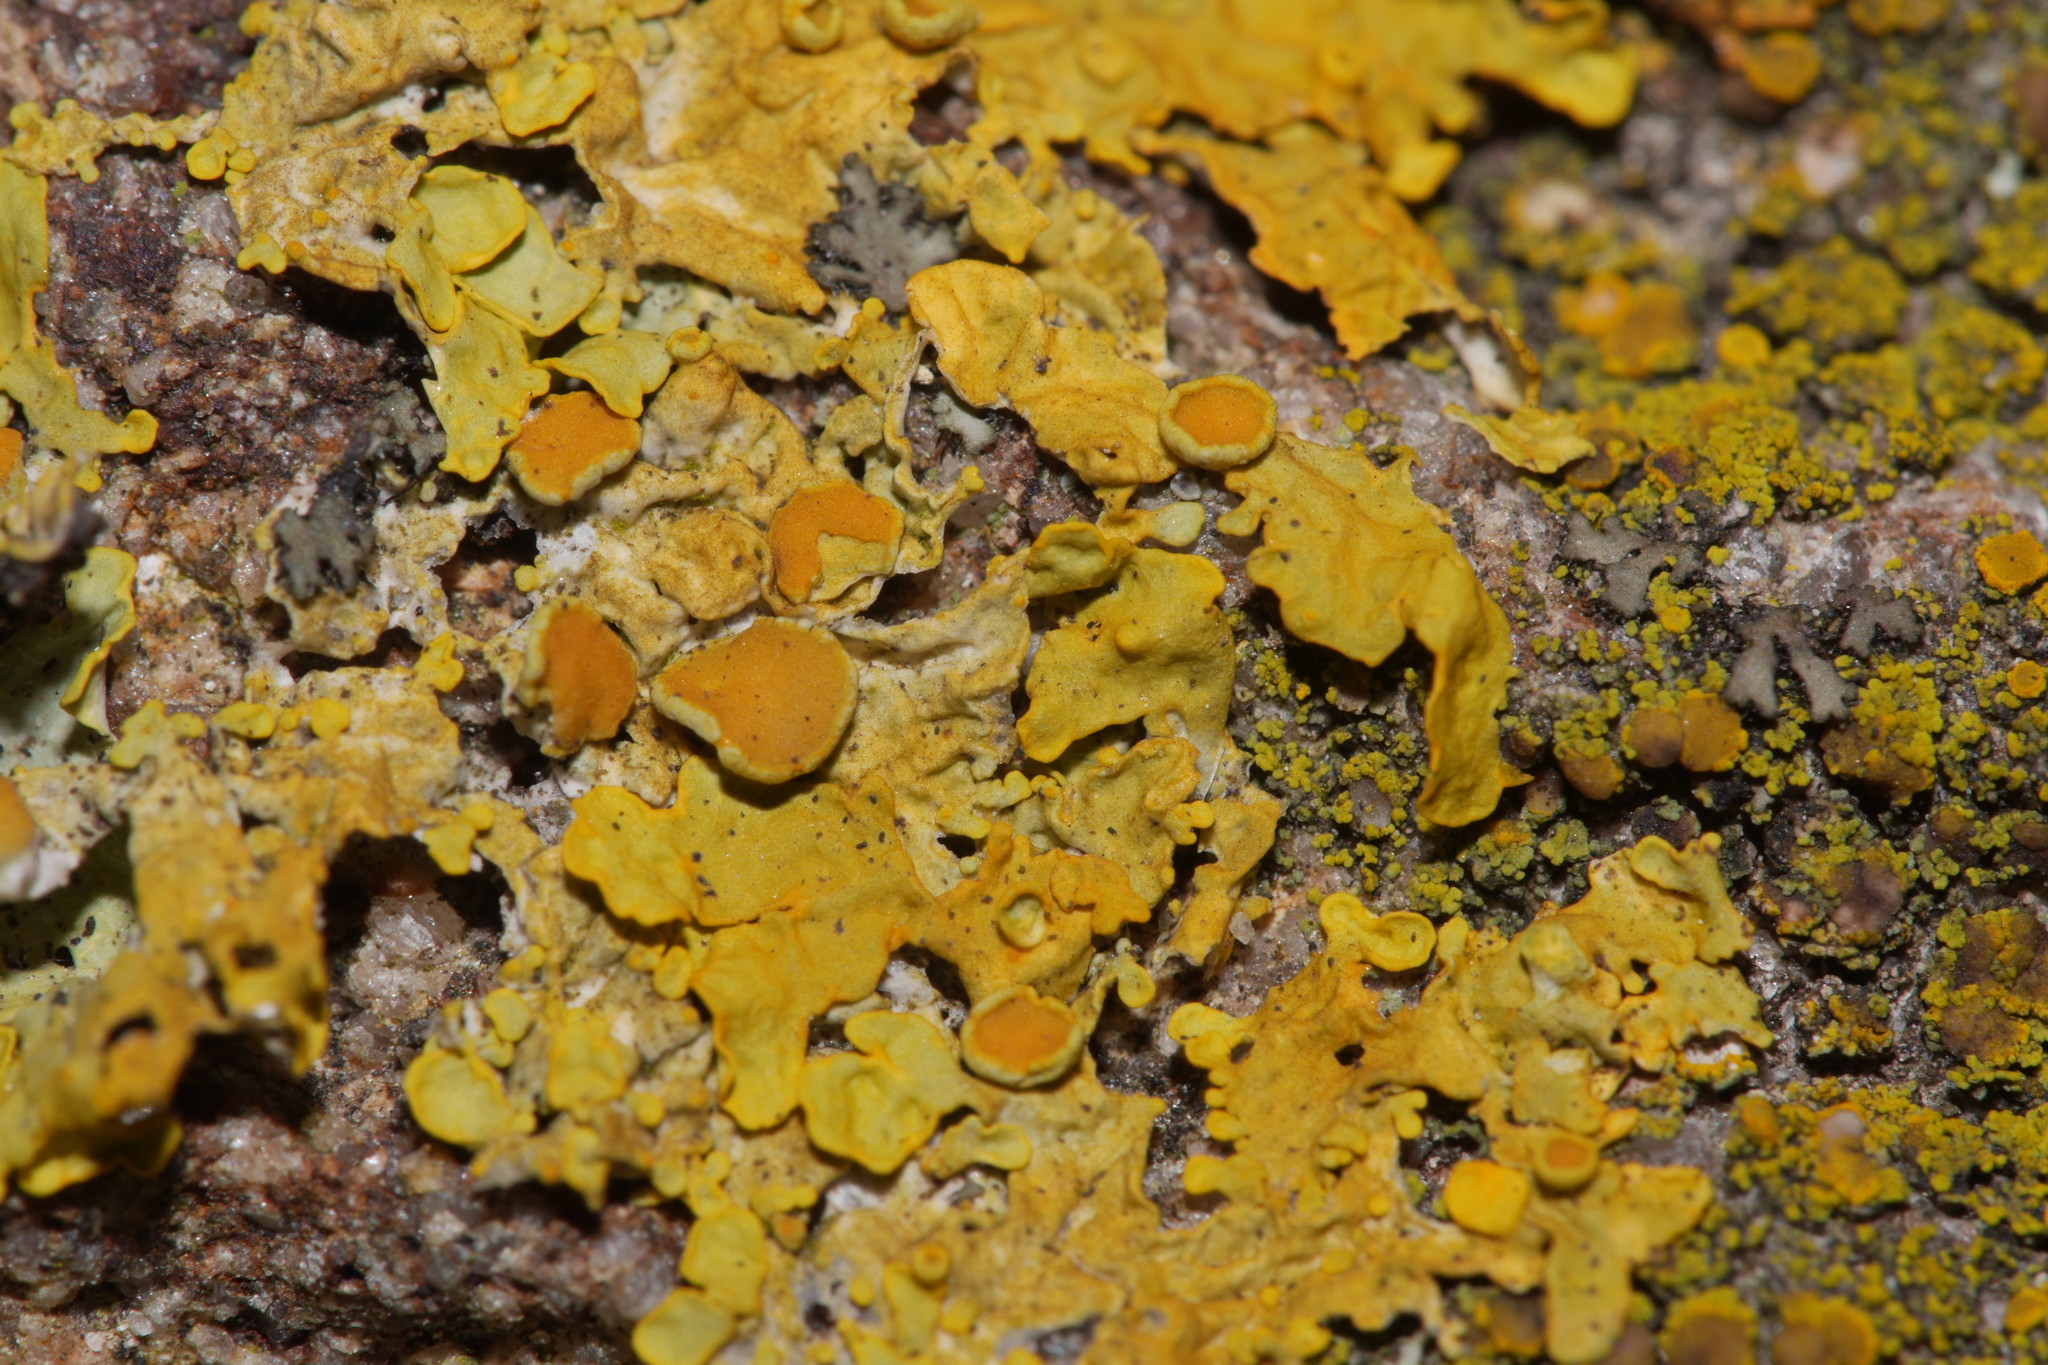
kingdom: Fungi
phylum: Ascomycota
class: Lecanoromycetes
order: Teloschistales
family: Teloschistaceae
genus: Xanthoria
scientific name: Xanthoria parietina
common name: Common orange lichen
